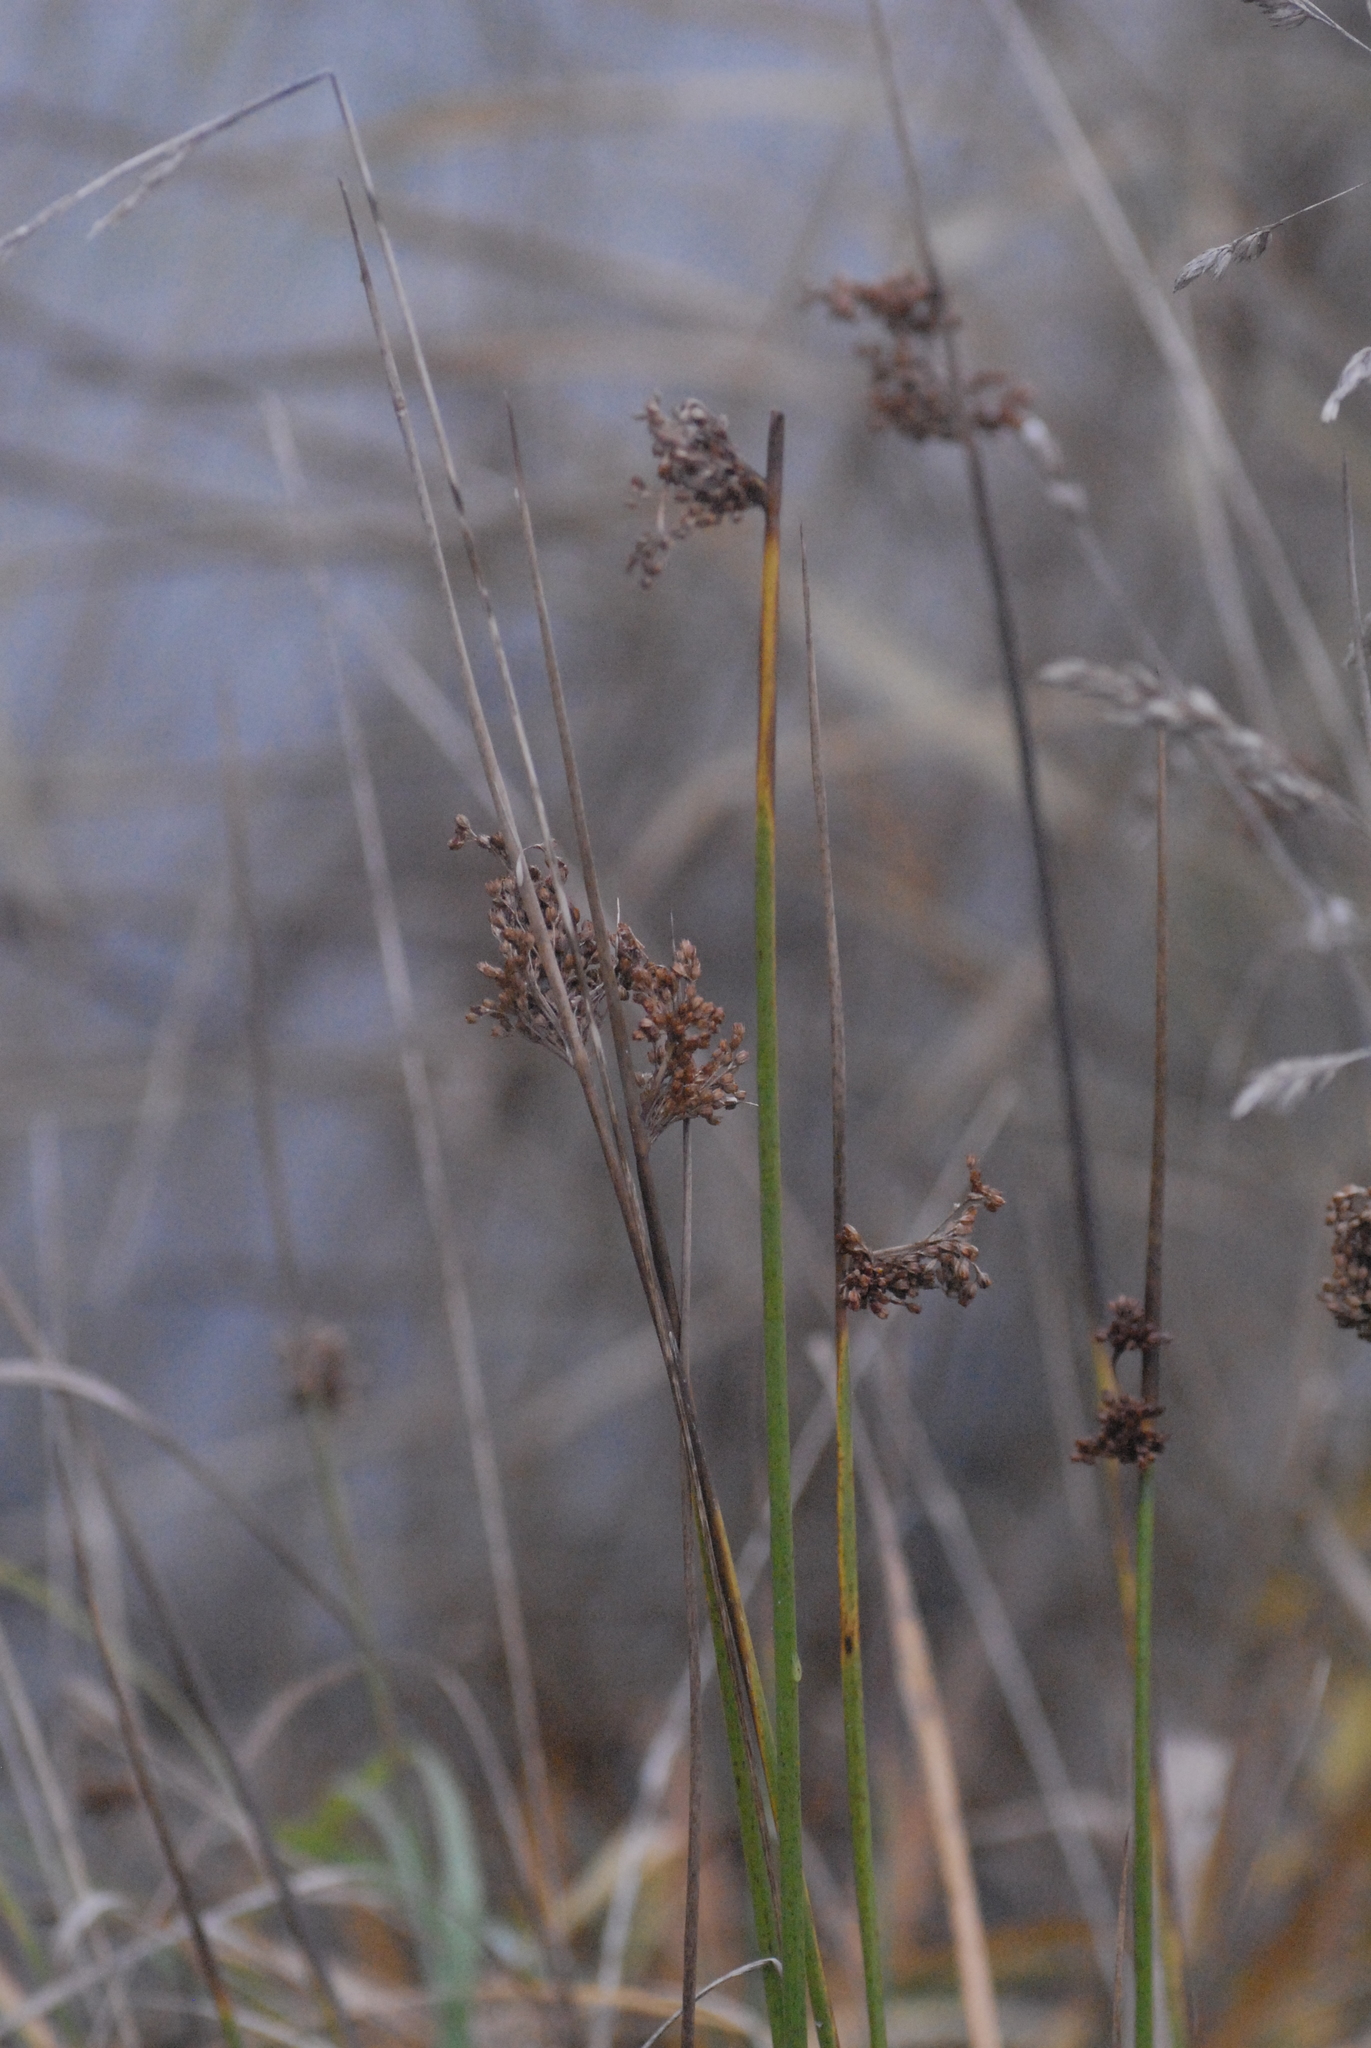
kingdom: Plantae
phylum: Tracheophyta
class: Liliopsida
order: Poales
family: Juncaceae
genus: Juncus
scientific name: Juncus effusus
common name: Soft rush
